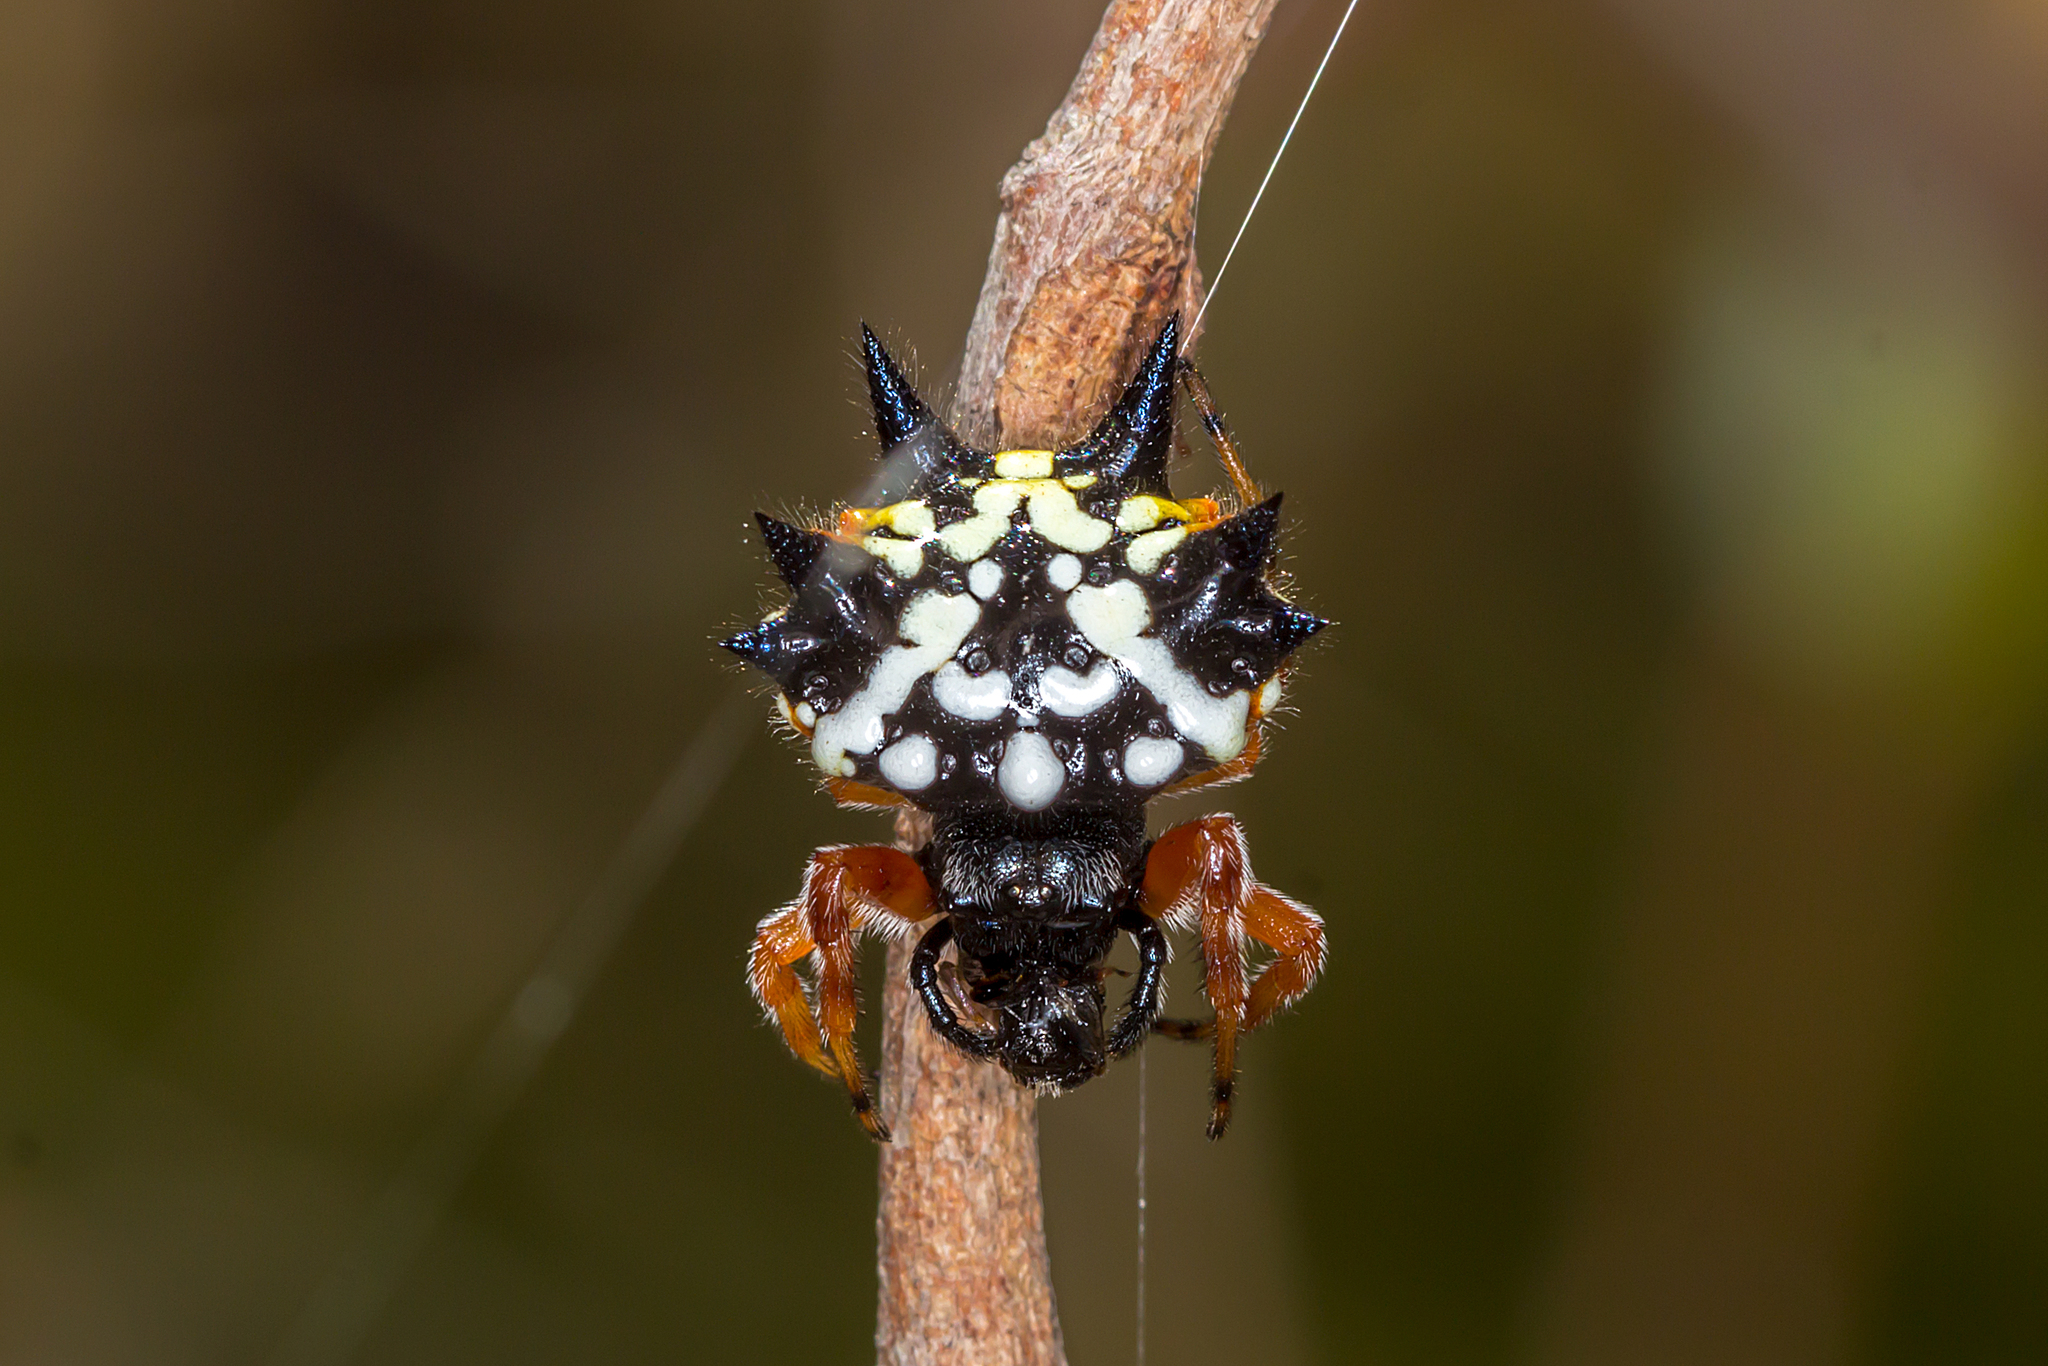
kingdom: Animalia
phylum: Arthropoda
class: Arachnida
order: Araneae
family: Araneidae
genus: Austracantha
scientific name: Austracantha minax
